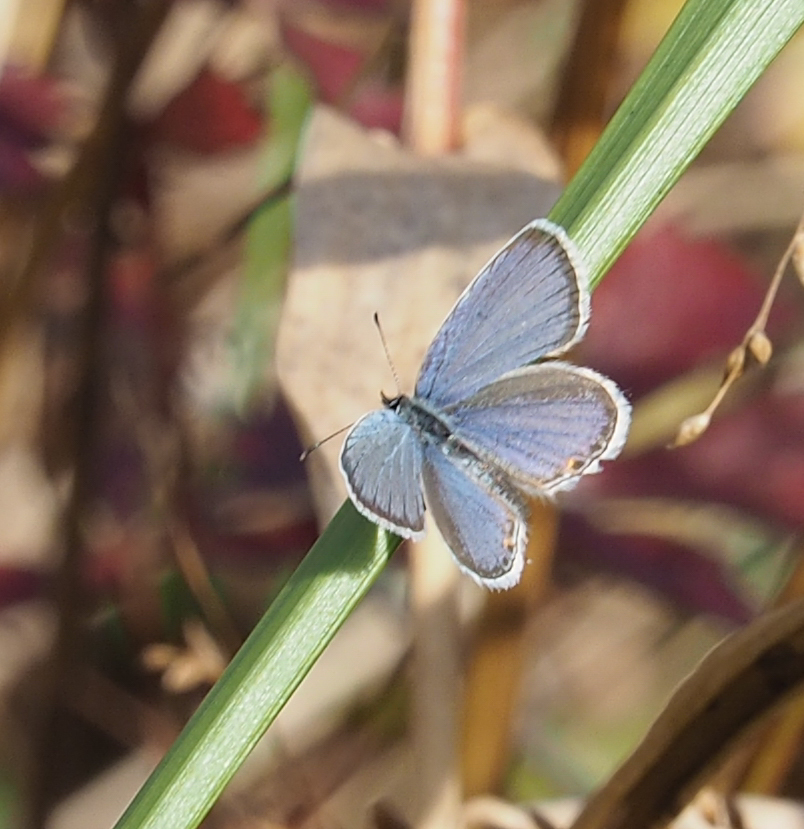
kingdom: Animalia
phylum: Arthropoda
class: Insecta
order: Lepidoptera
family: Lycaenidae
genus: Elkalyce
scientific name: Elkalyce comyntas
